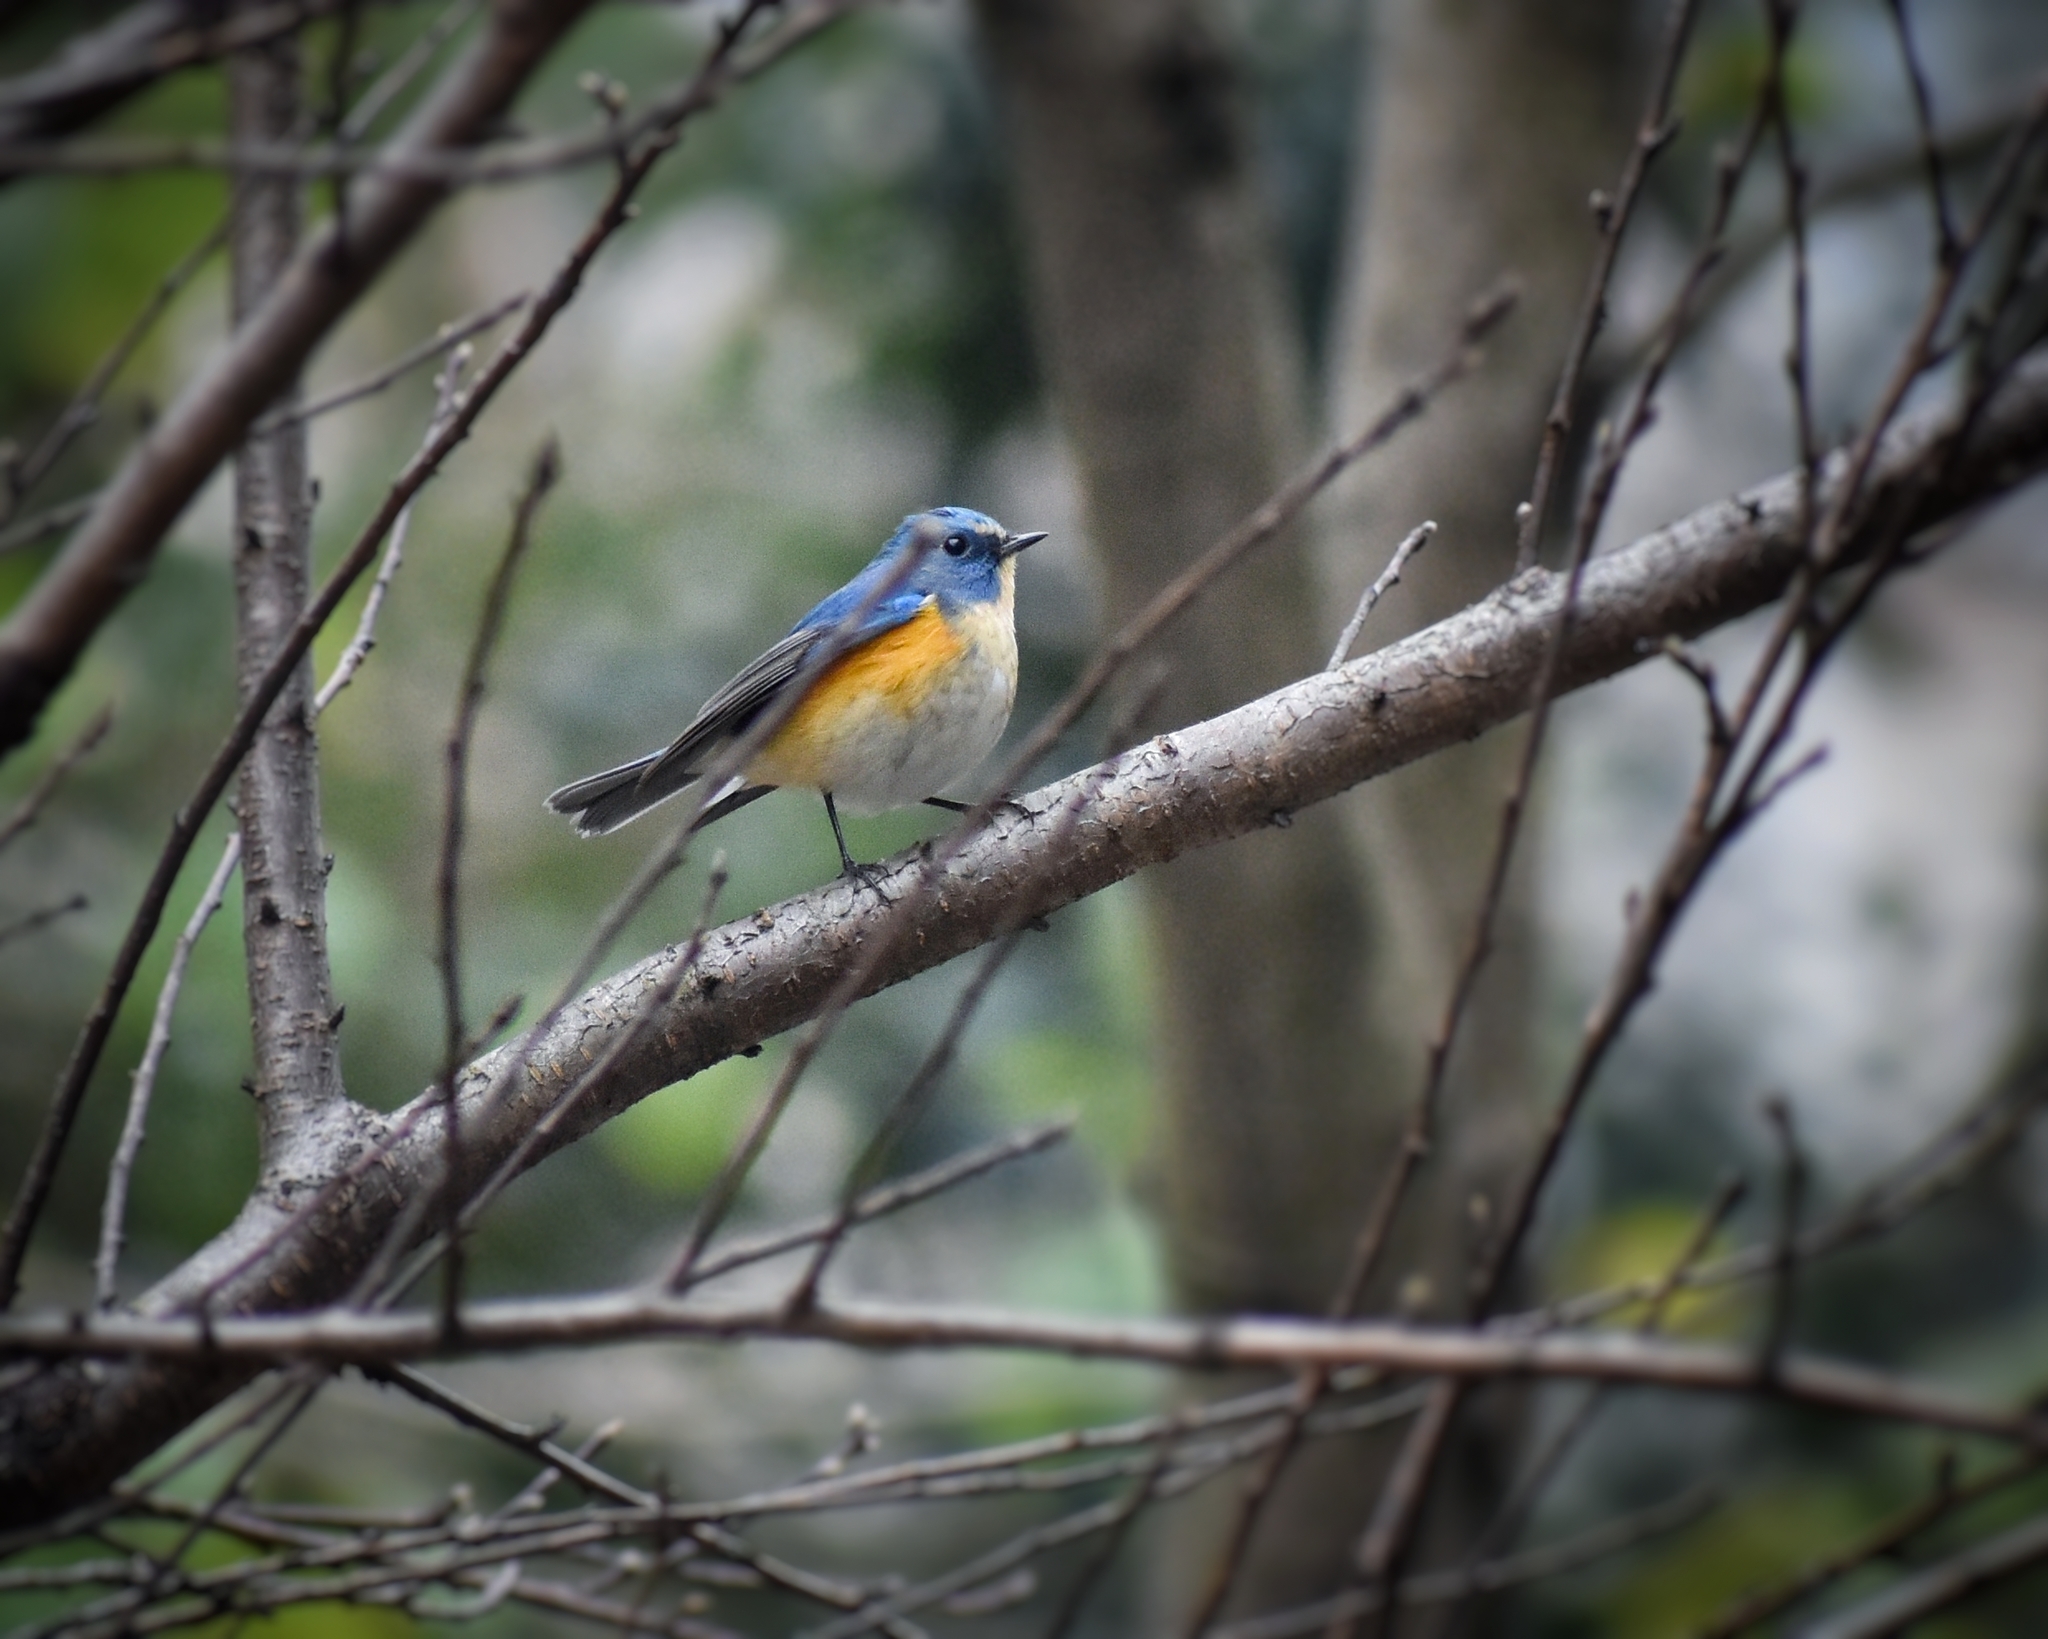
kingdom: Animalia
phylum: Chordata
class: Aves
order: Passeriformes
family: Muscicapidae
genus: Tarsiger
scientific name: Tarsiger cyanurus
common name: Red-flanked bluetail
